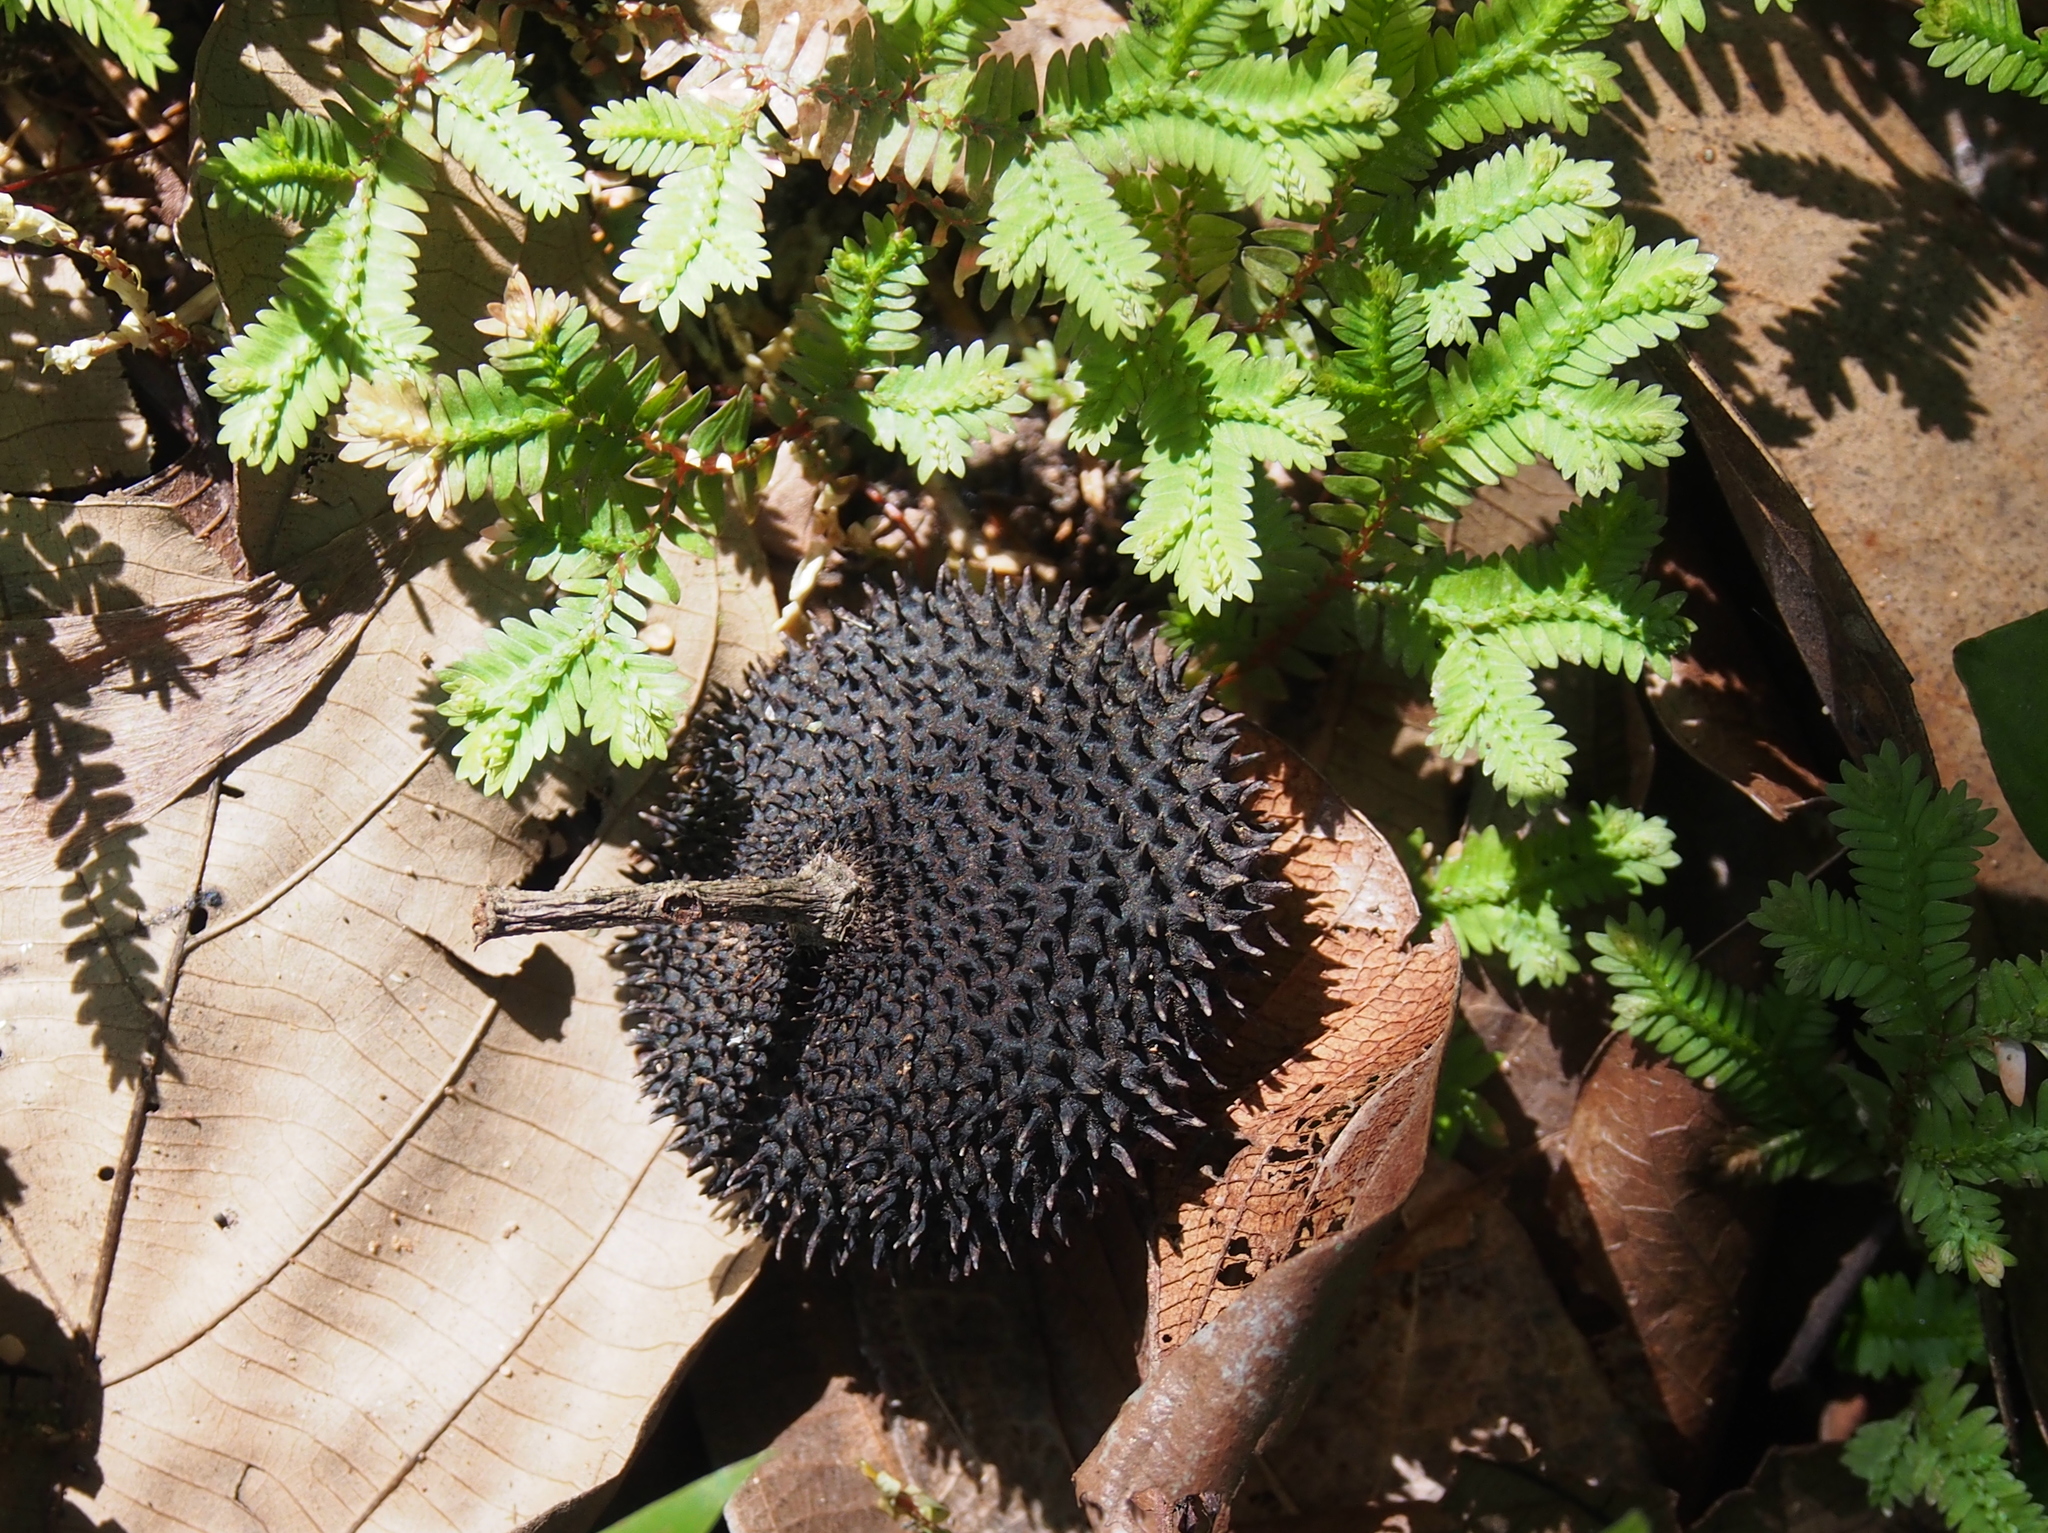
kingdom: Plantae
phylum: Tracheophyta
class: Magnoliopsida
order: Malvales
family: Malvaceae
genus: Apeiba
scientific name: Apeiba membranacea
